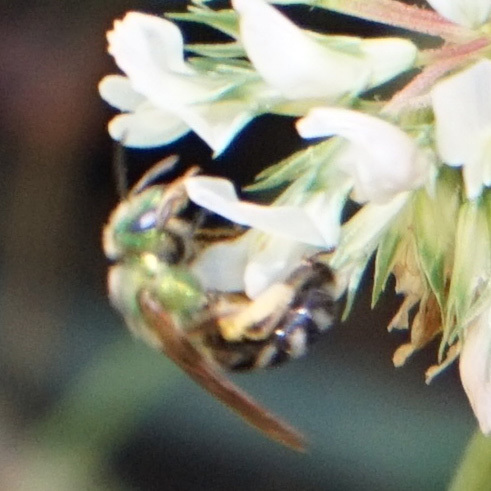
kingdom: Animalia
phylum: Arthropoda
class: Insecta
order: Hymenoptera
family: Halictidae
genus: Agapostemon
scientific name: Agapostemon virescens
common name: Bicolored striped sweat bee
